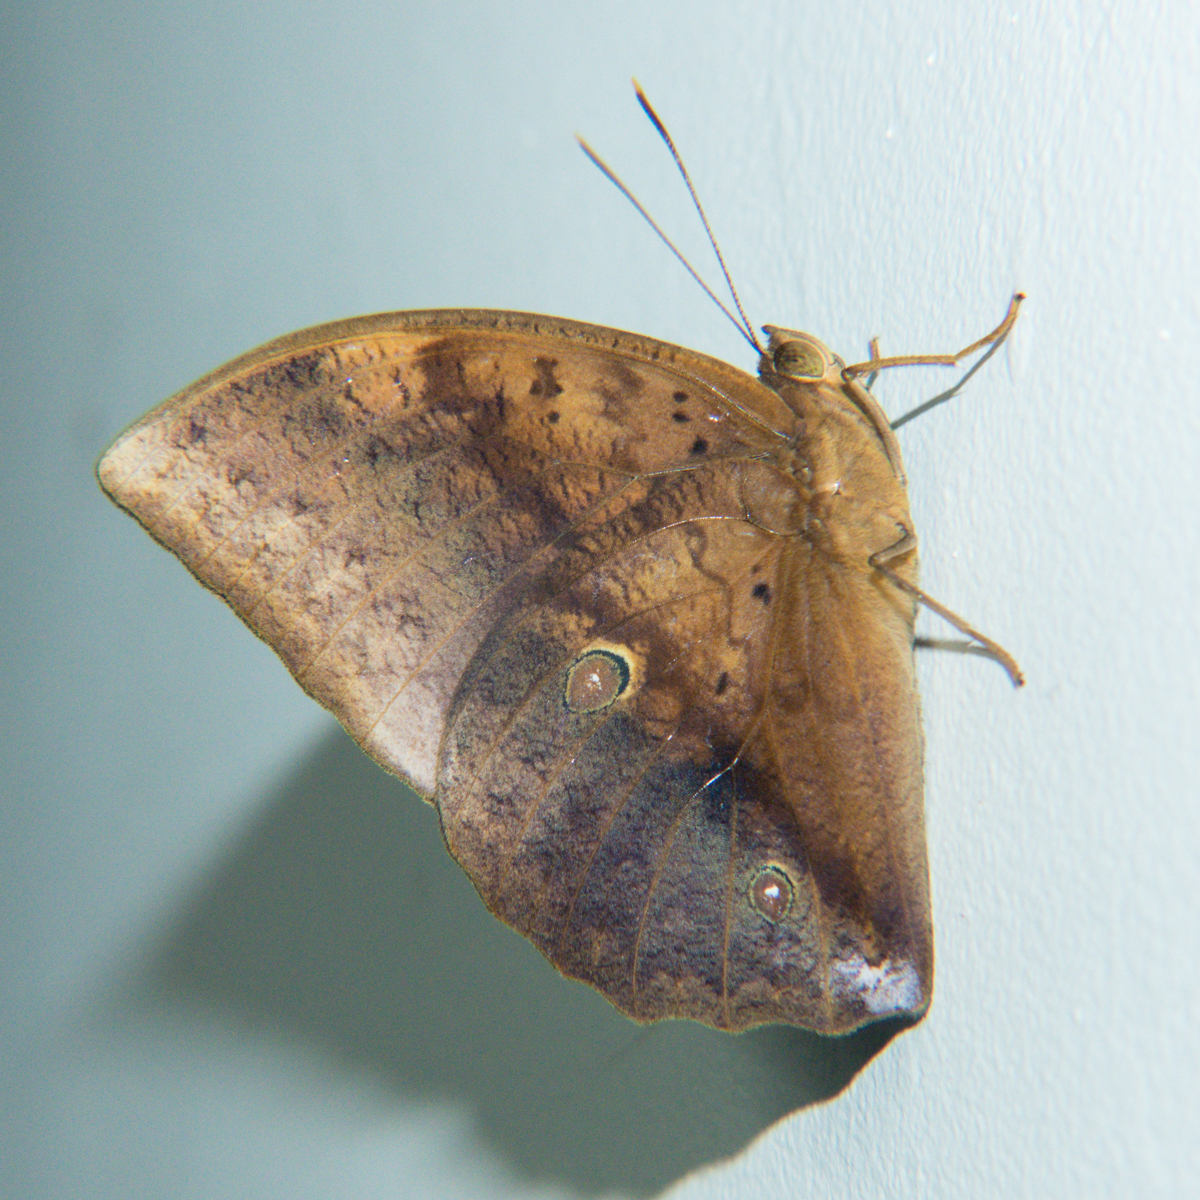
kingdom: Animalia
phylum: Arthropoda
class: Insecta
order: Lepidoptera
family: Nymphalidae
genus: Discophora
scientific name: Discophora timora
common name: Great duffer
